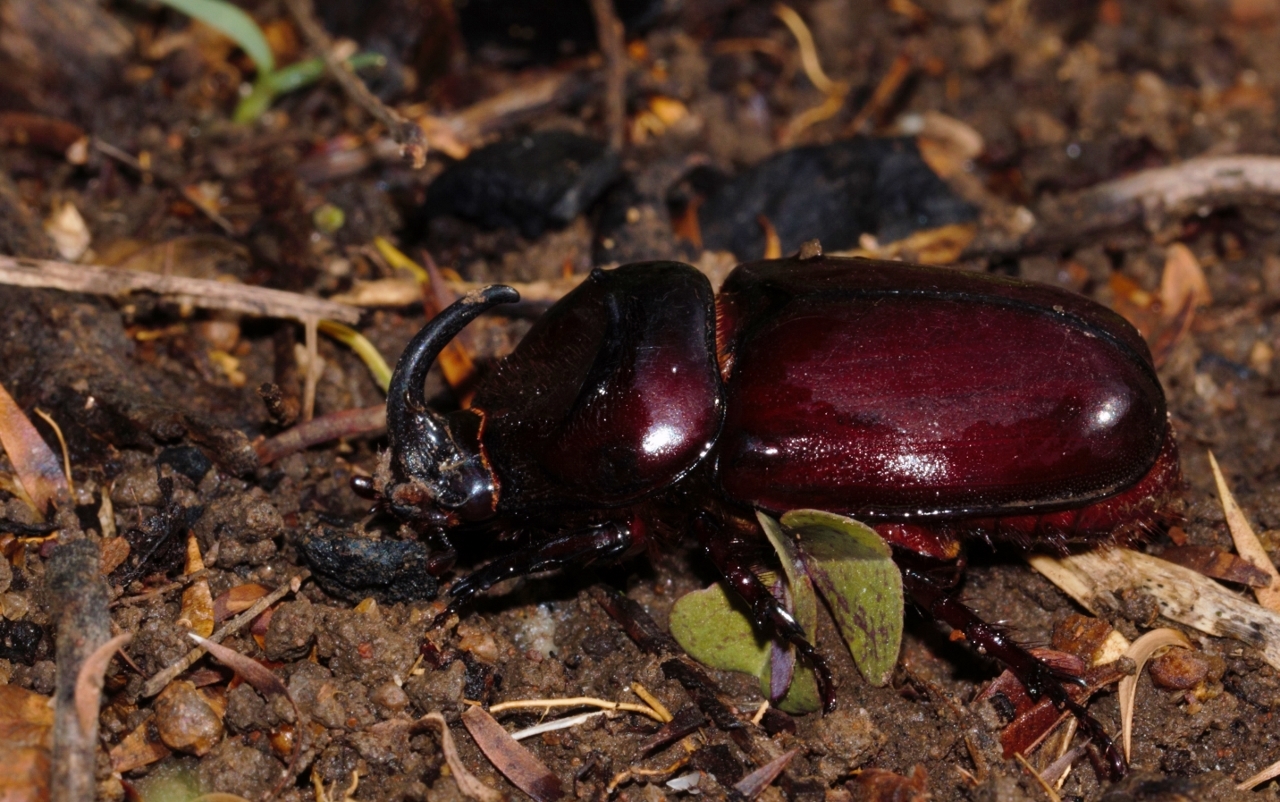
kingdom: Animalia
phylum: Arthropoda
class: Insecta
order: Coleoptera
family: Scarabaeidae
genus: Oryctes
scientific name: Oryctes boas
